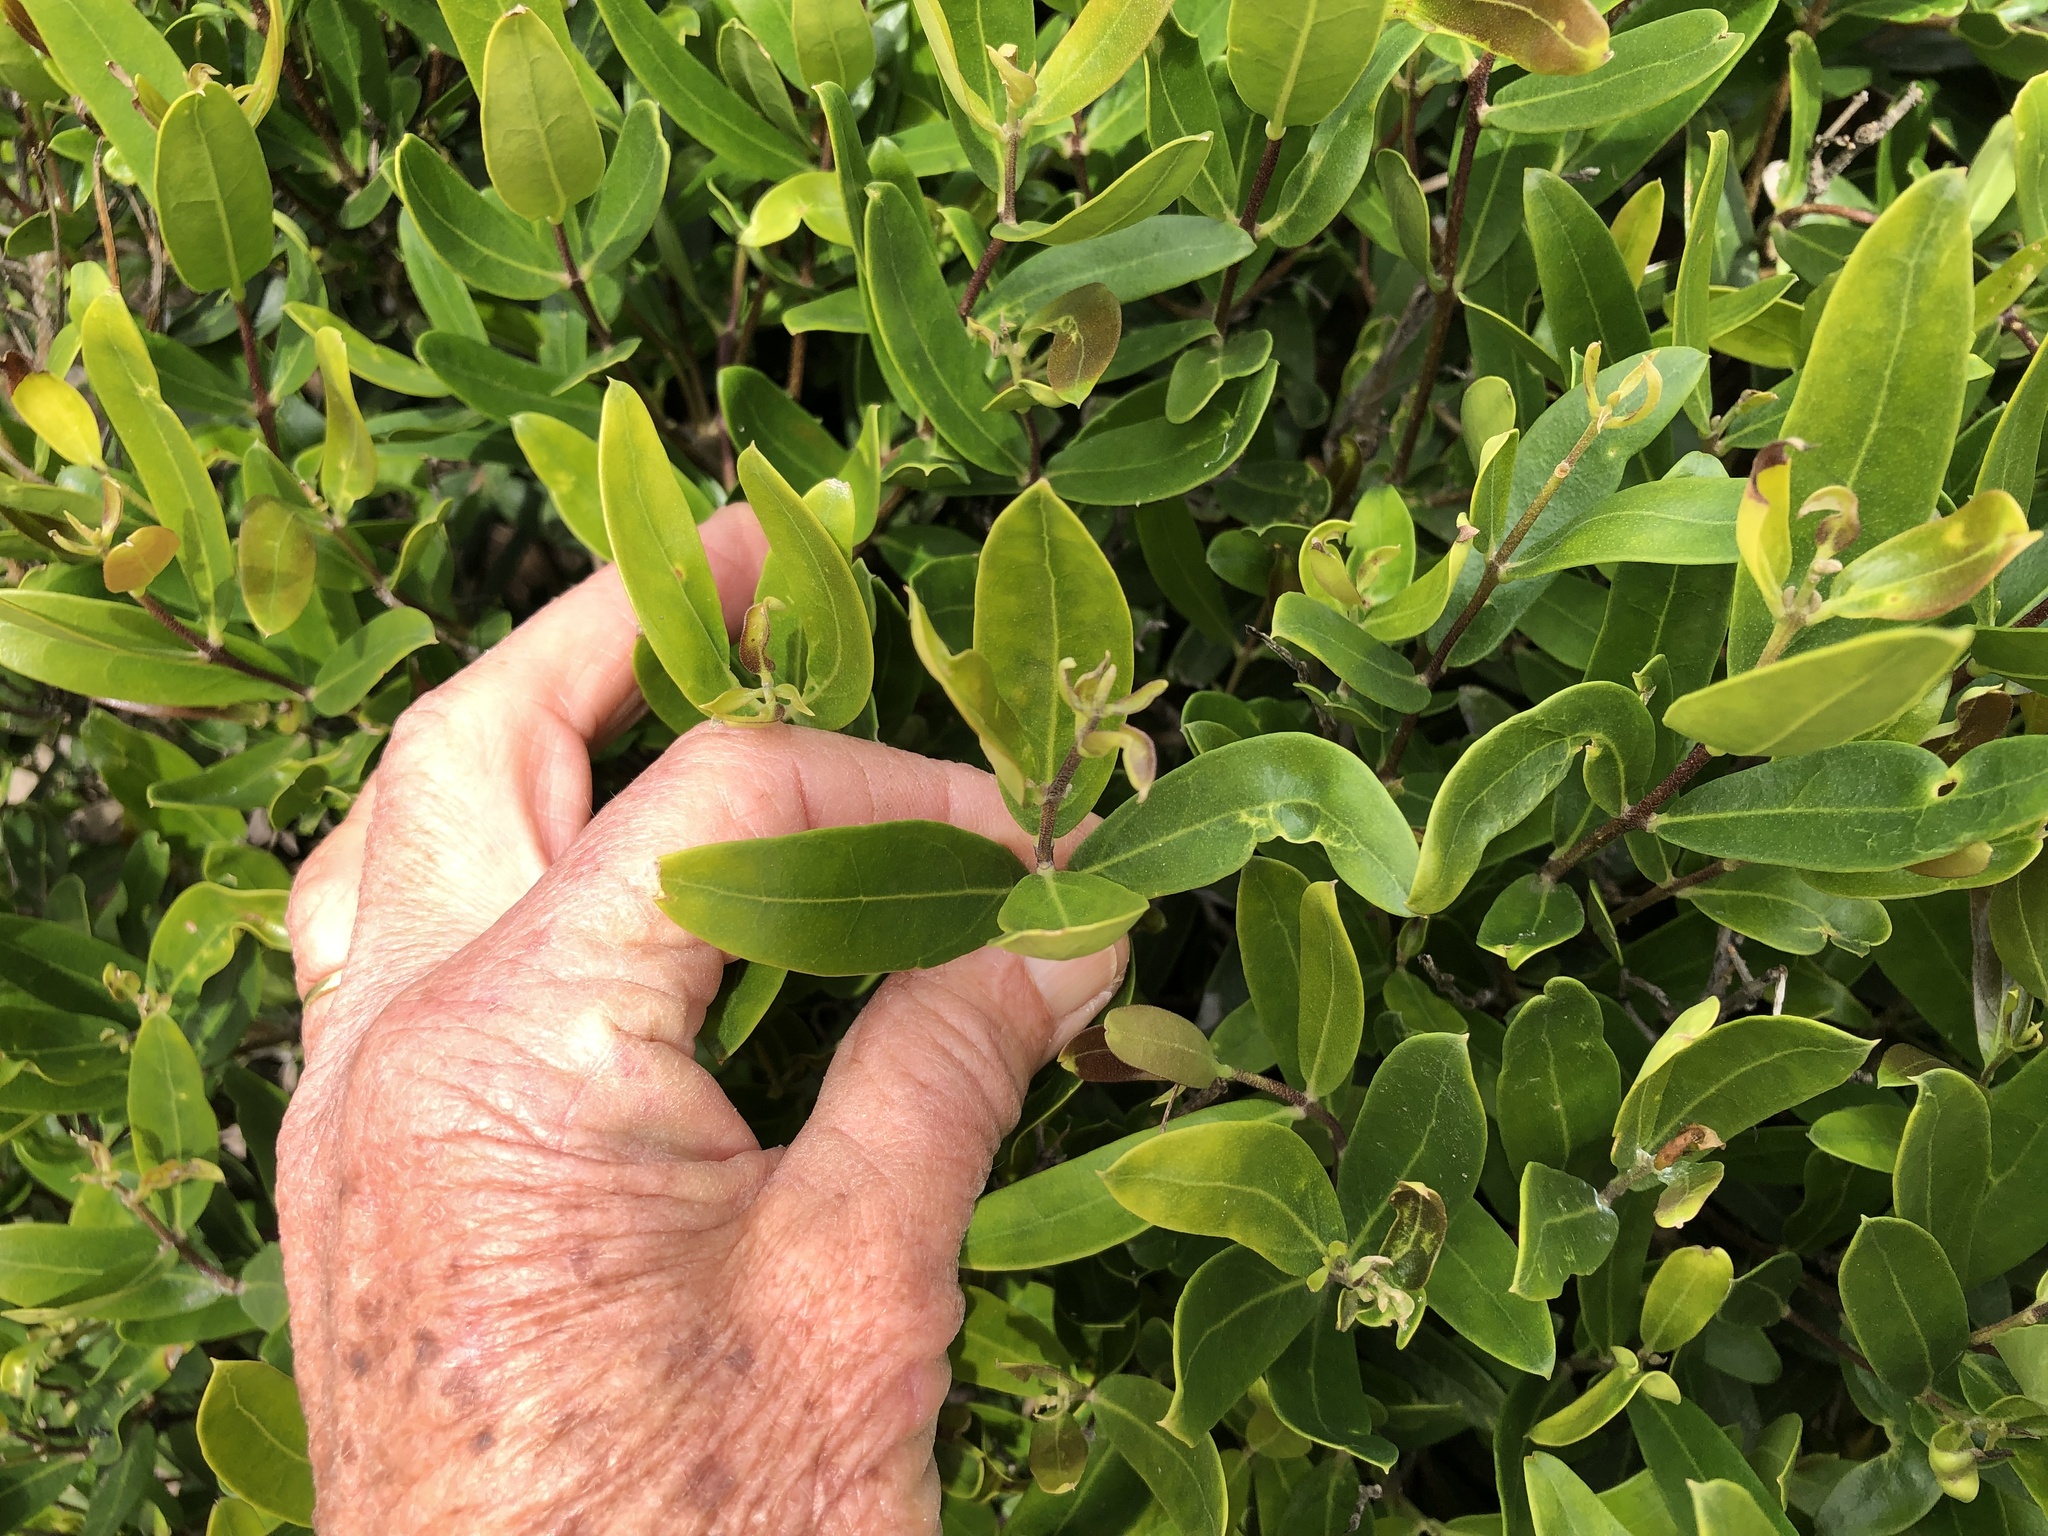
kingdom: Plantae
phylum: Tracheophyta
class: Magnoliopsida
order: Lamiales
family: Oleaceae
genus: Olea
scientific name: Olea exasperata
